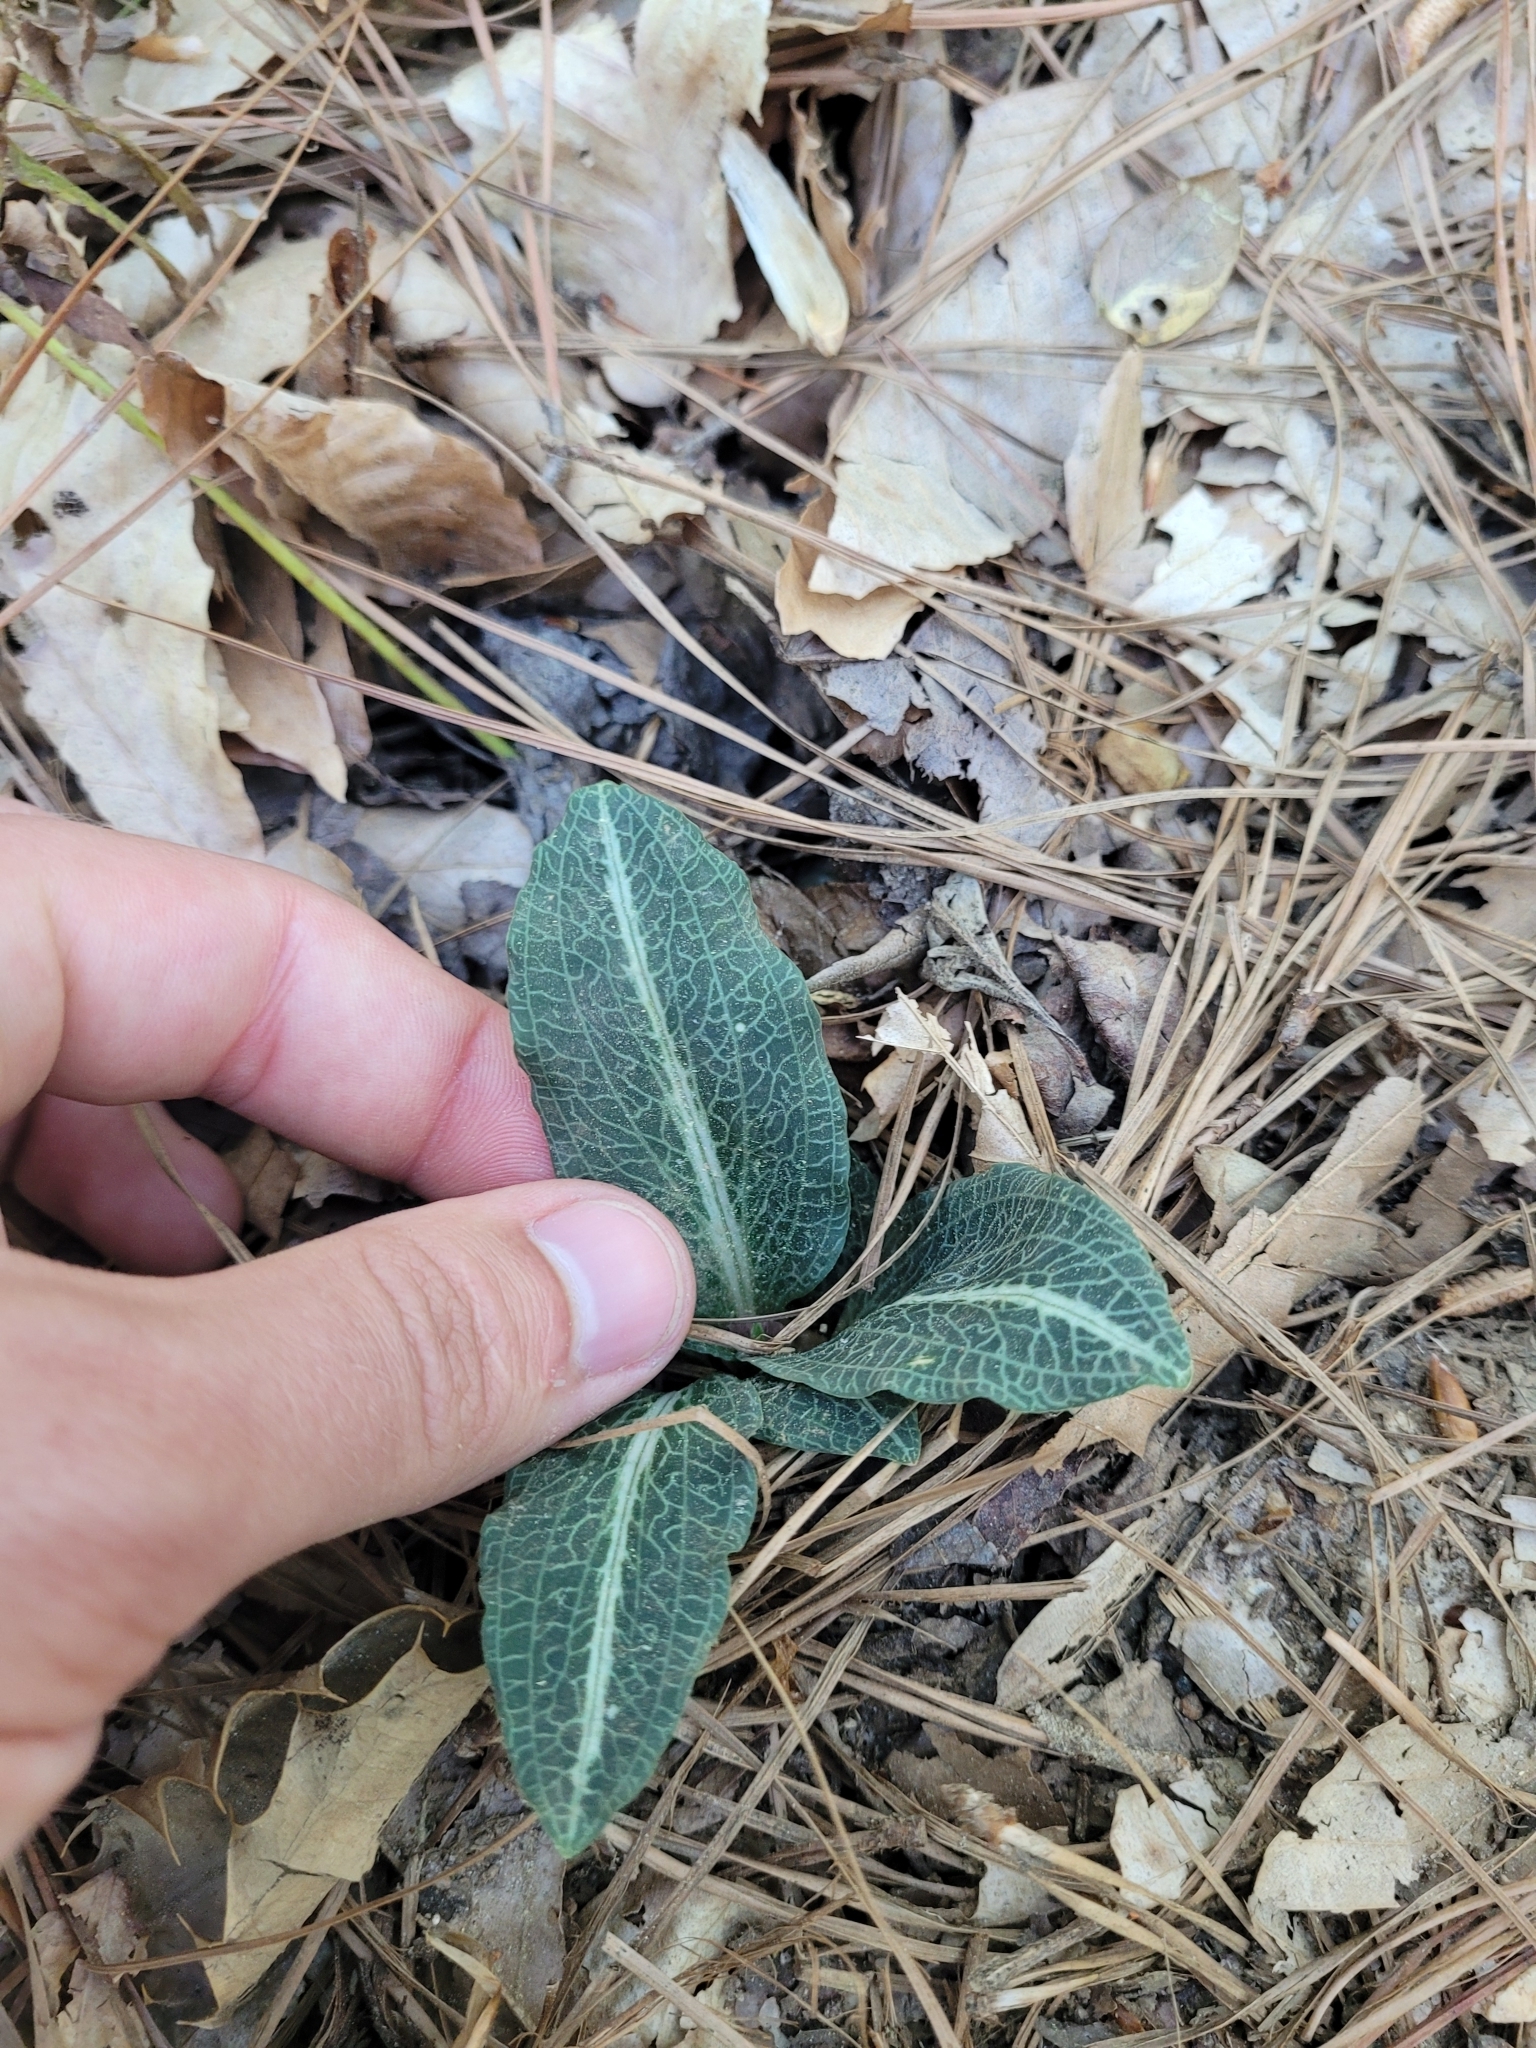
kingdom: Plantae
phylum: Tracheophyta
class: Liliopsida
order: Asparagales
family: Orchidaceae
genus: Goodyera
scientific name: Goodyera pubescens
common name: Downy rattlesnake-plantain
